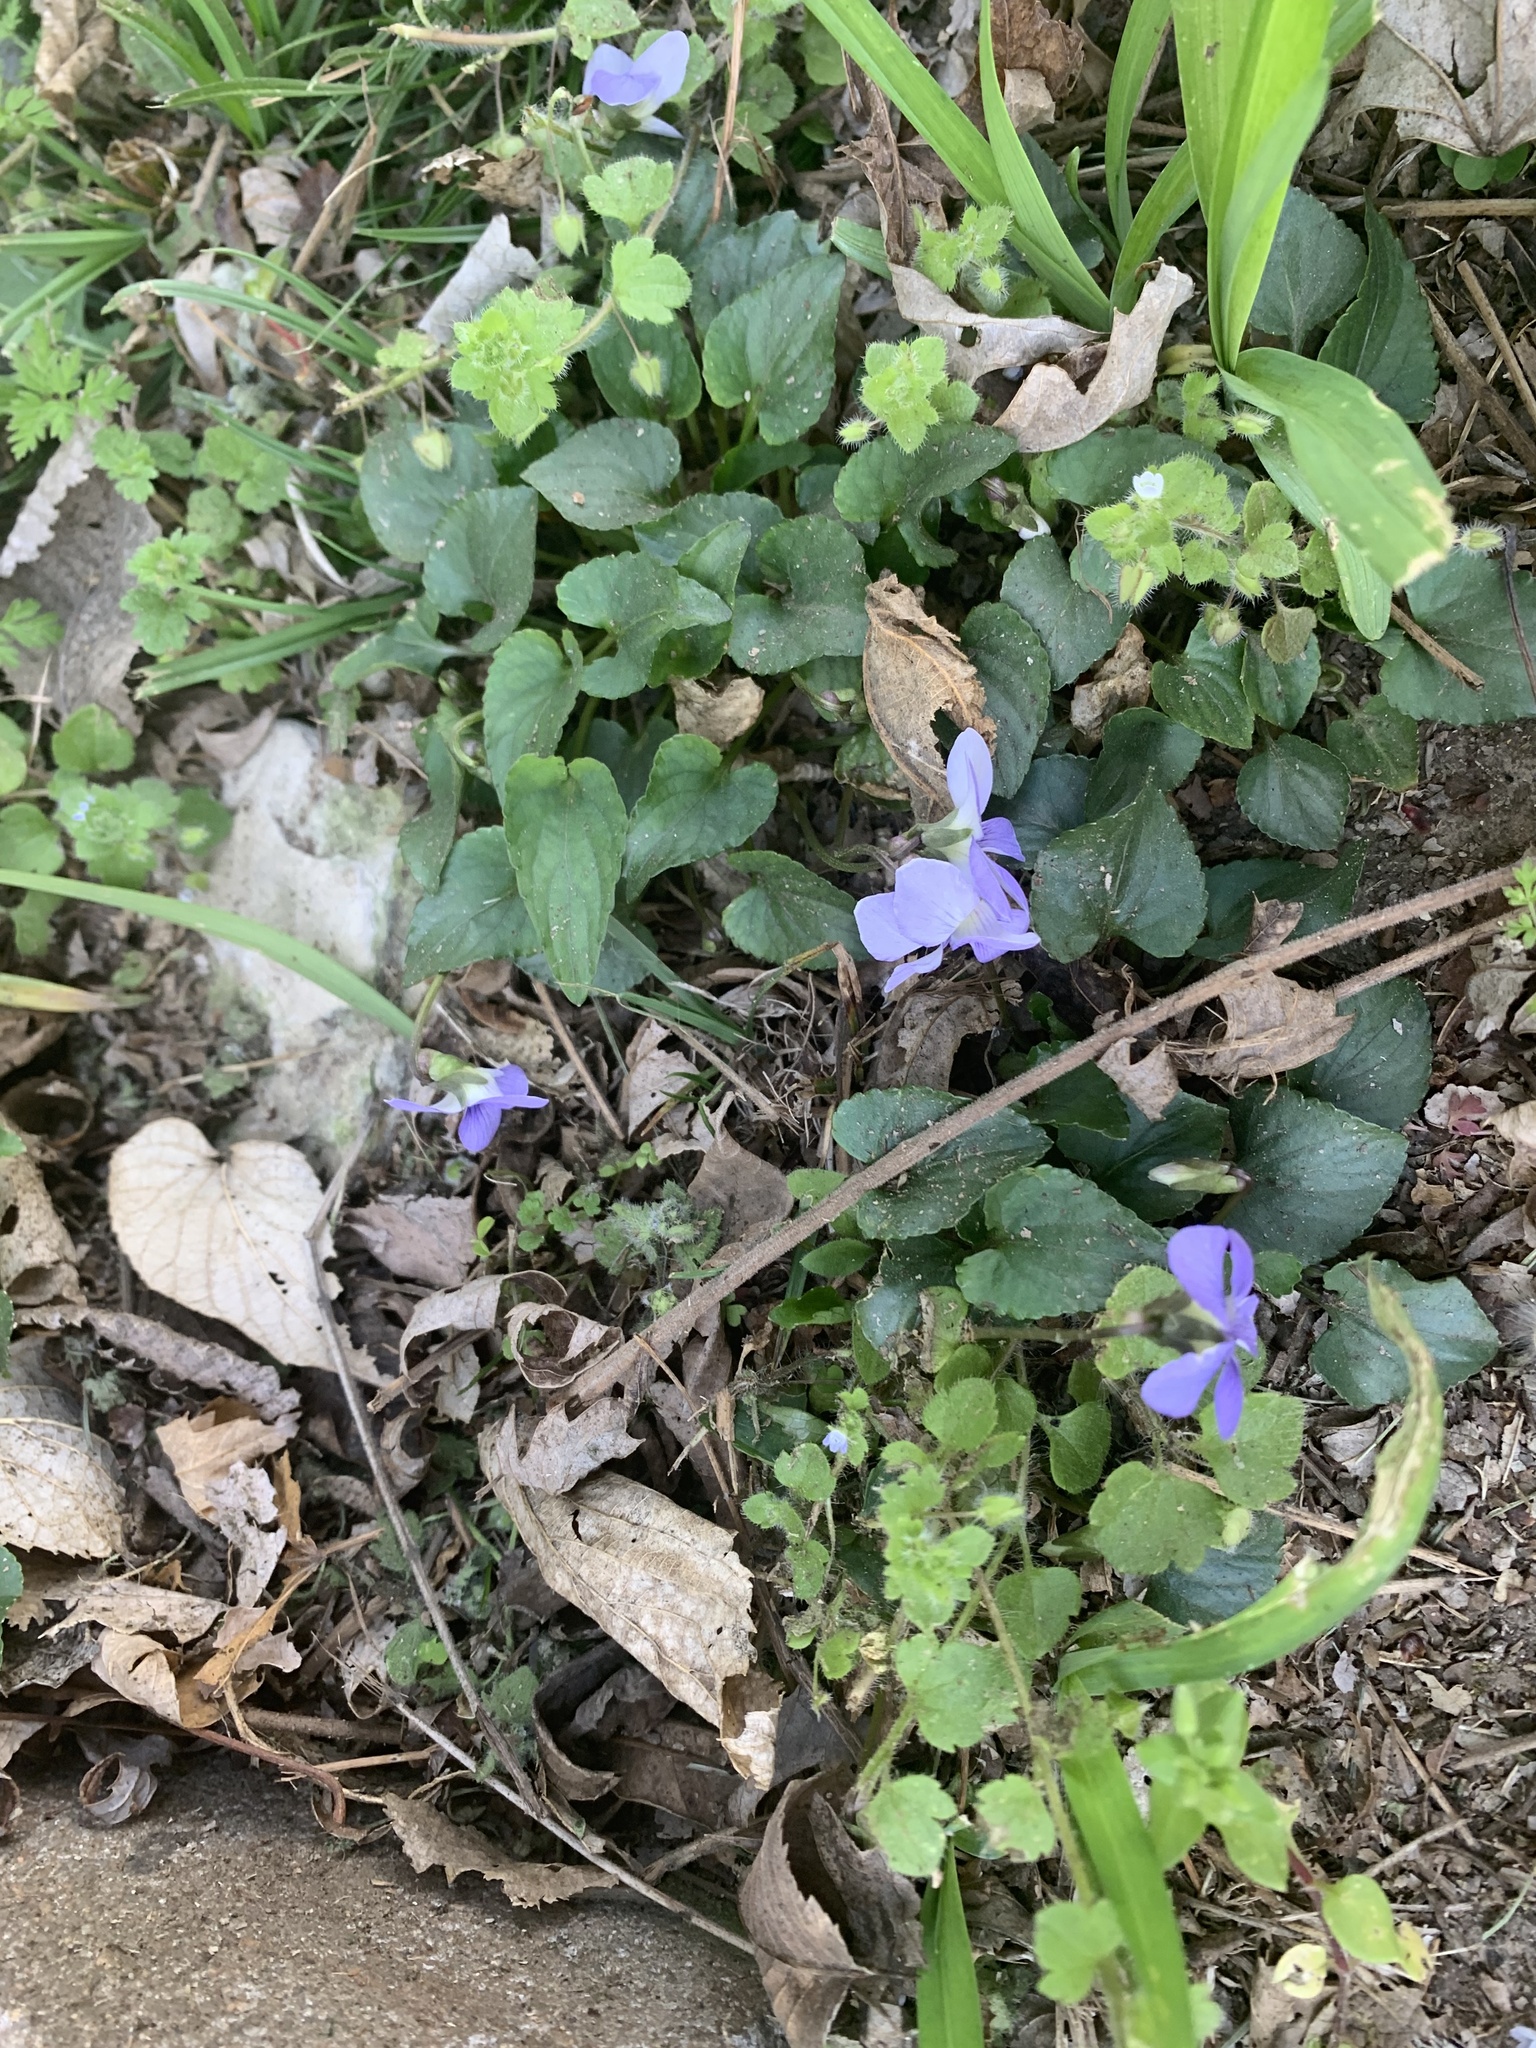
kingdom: Plantae
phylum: Tracheophyta
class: Magnoliopsida
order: Malpighiales
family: Violaceae
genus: Viola
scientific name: Viola rafinesquei
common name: American field pansy
